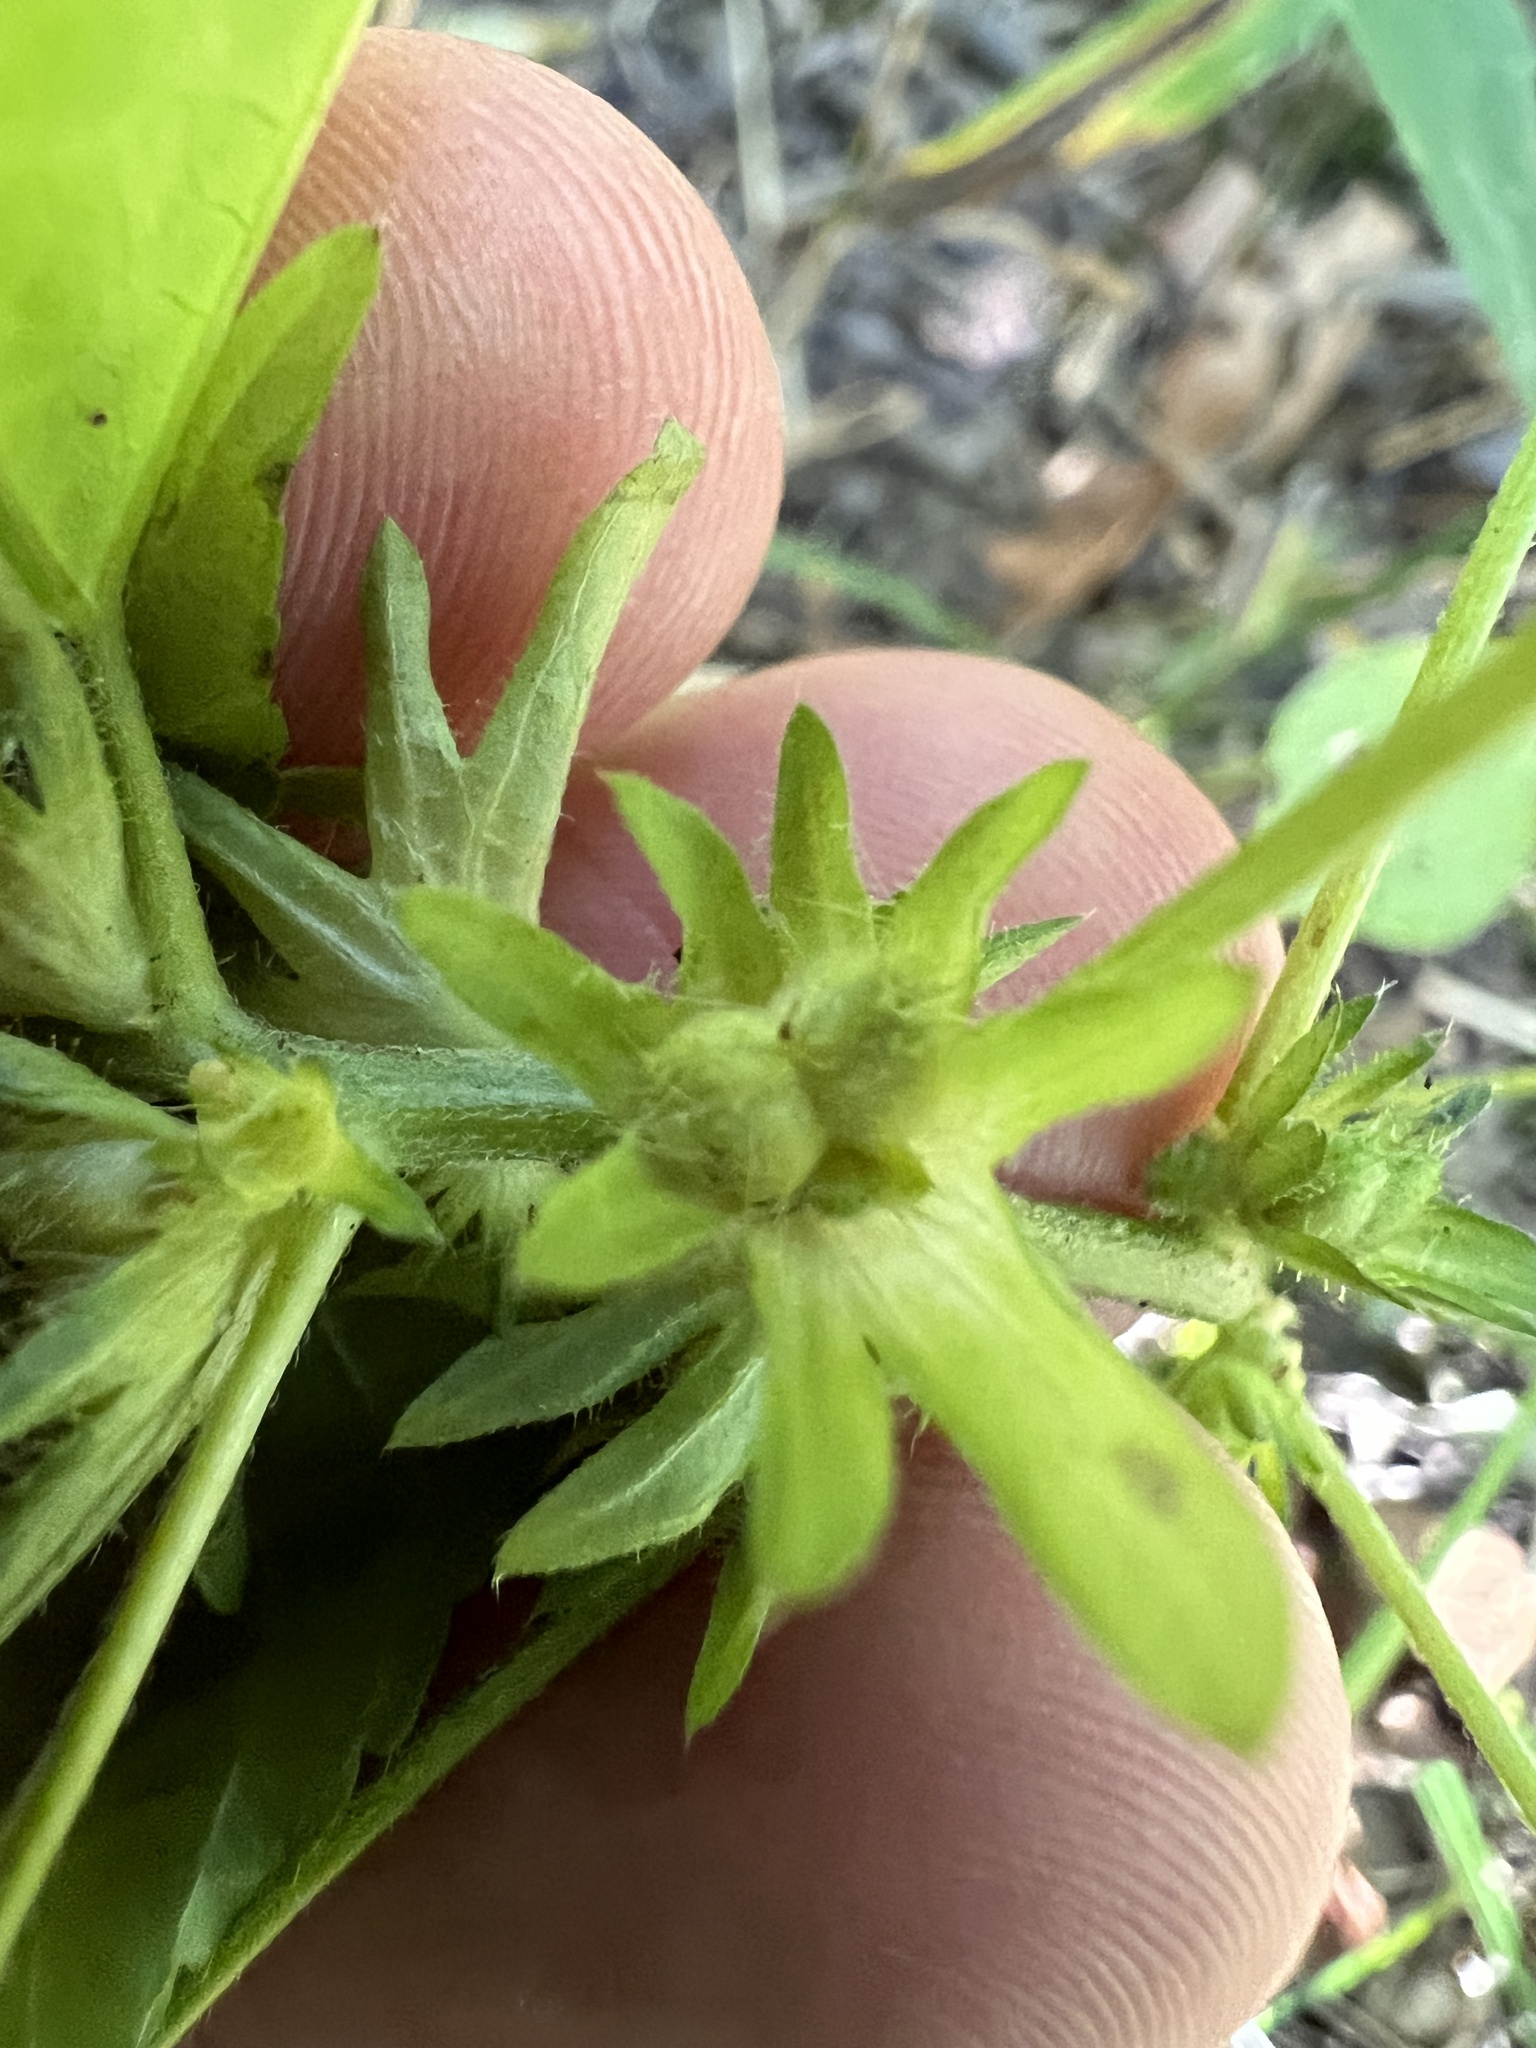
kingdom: Plantae
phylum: Tracheophyta
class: Magnoliopsida
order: Malpighiales
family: Euphorbiaceae
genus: Acalypha
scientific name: Acalypha deamii
